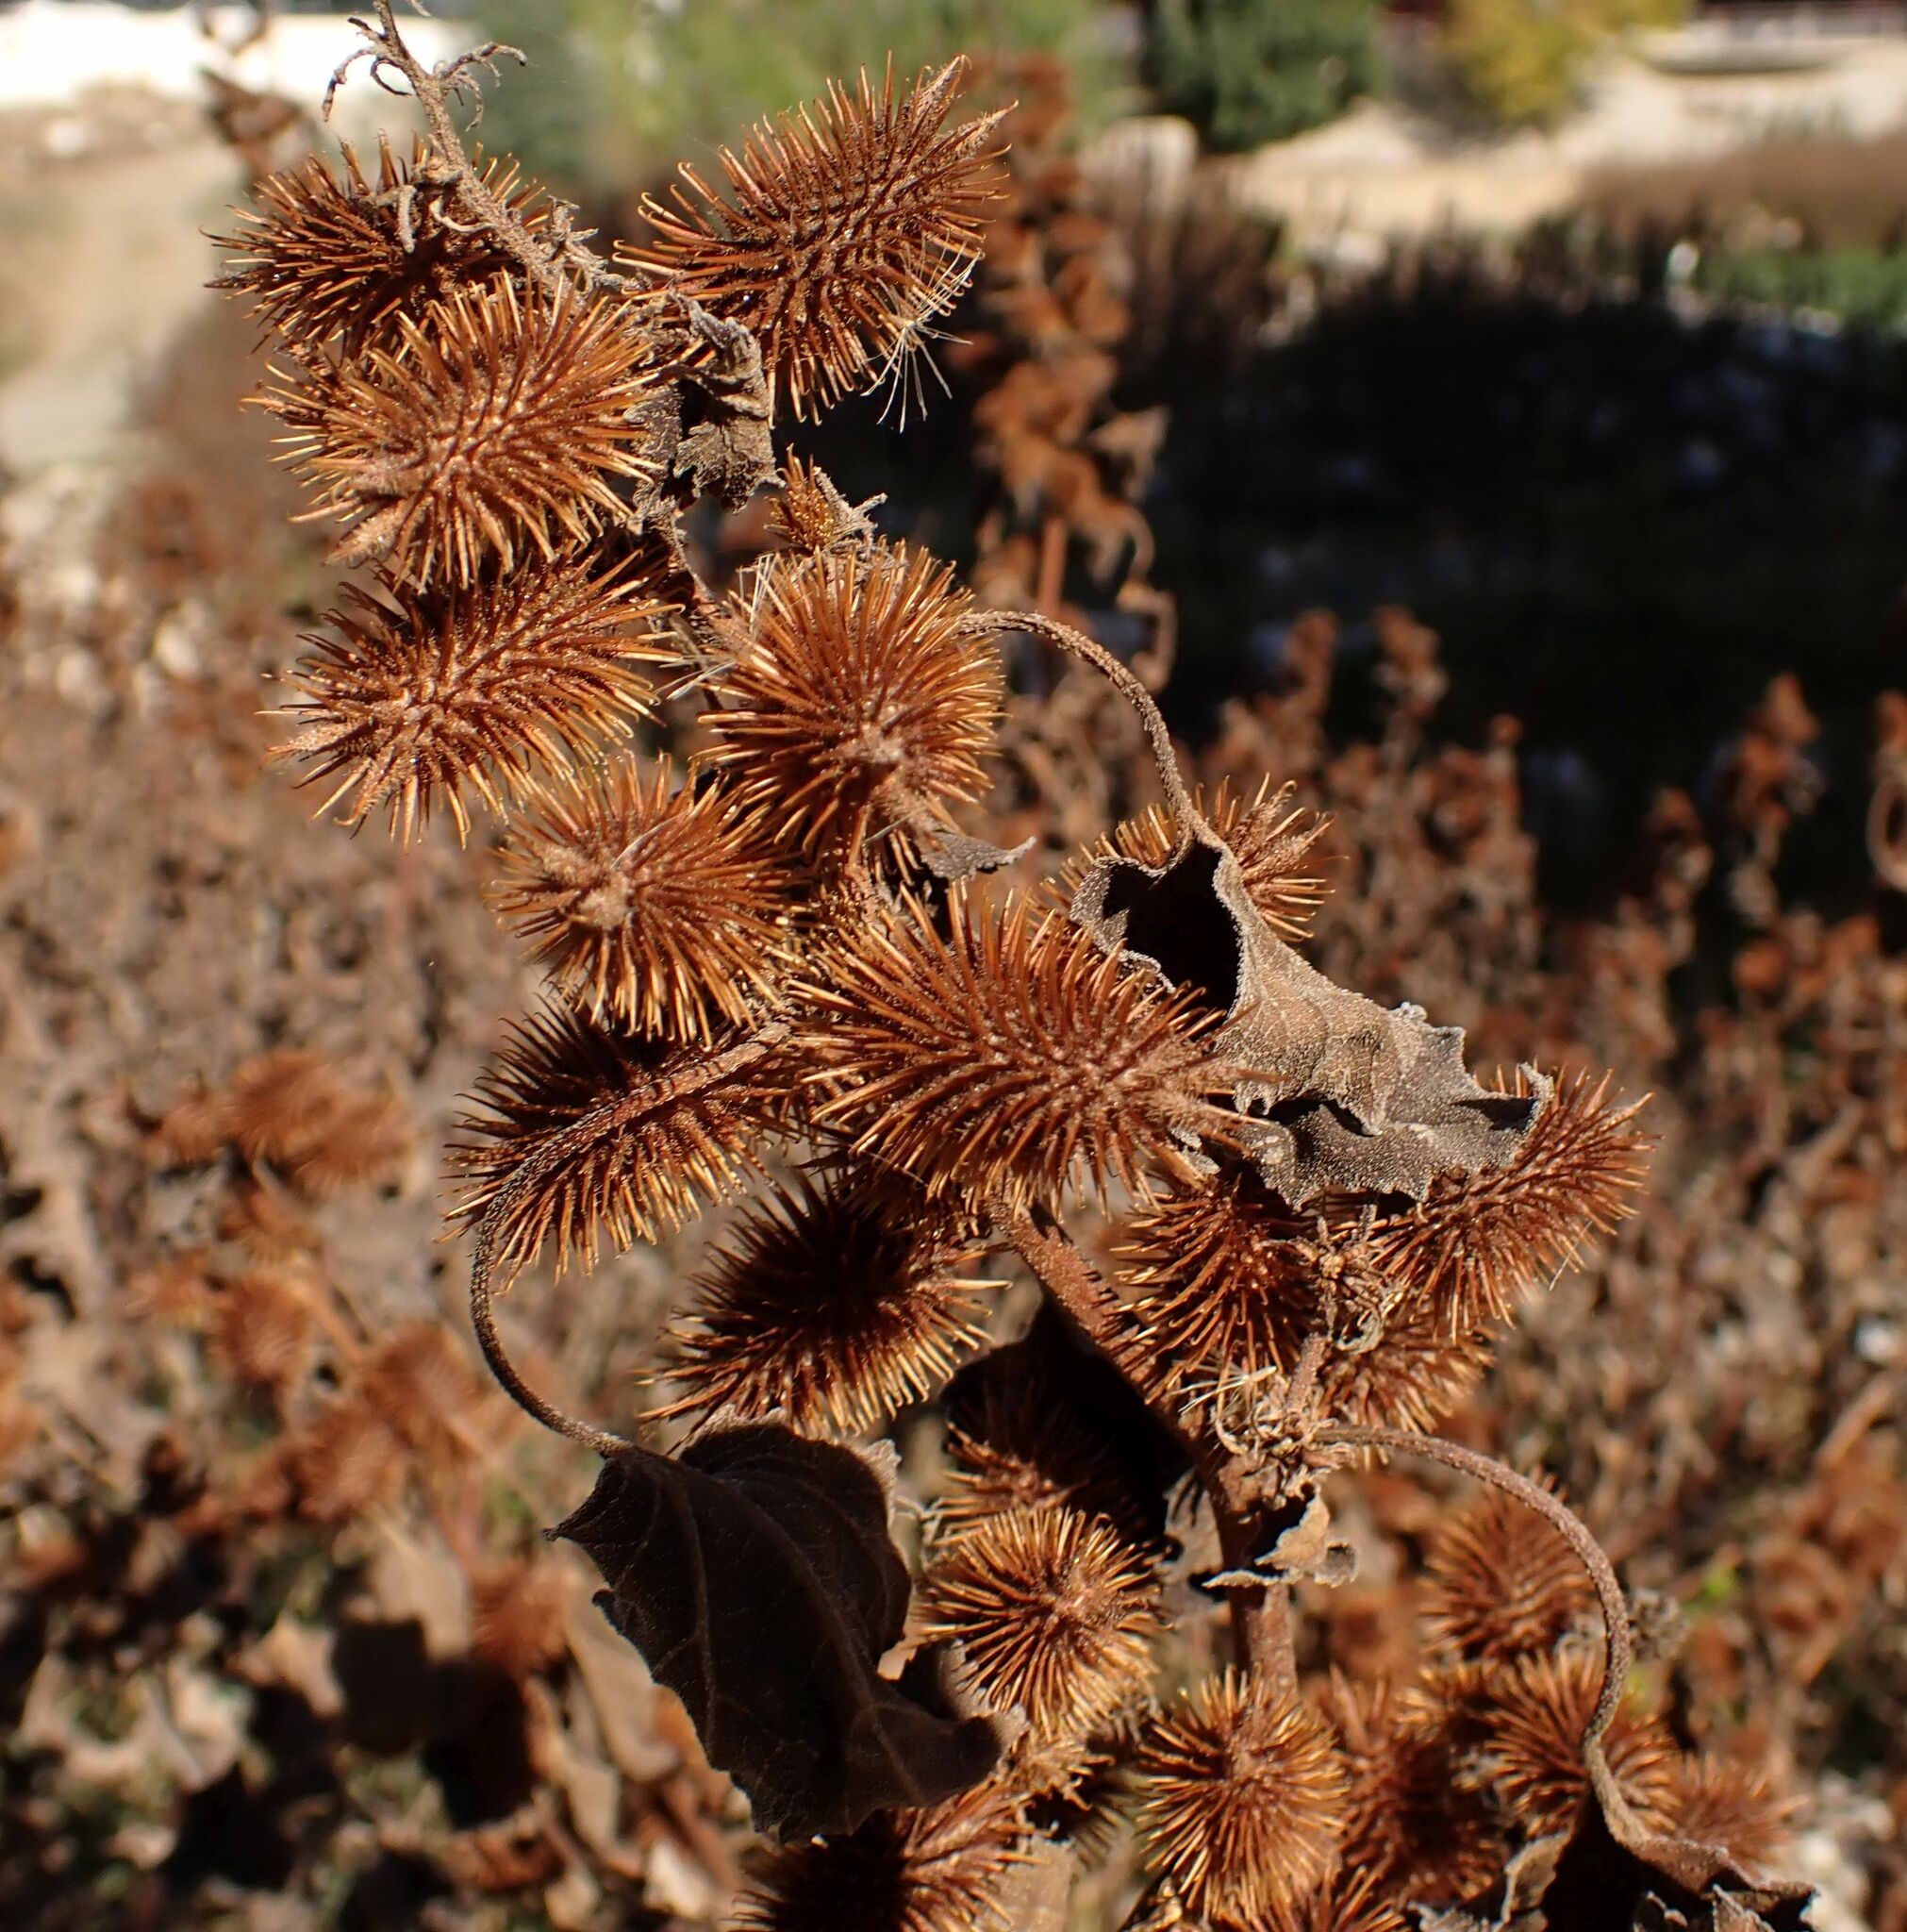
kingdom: Plantae
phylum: Tracheophyta
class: Magnoliopsida
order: Asterales
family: Asteraceae
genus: Xanthium
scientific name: Xanthium strumarium
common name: Rough cocklebur
